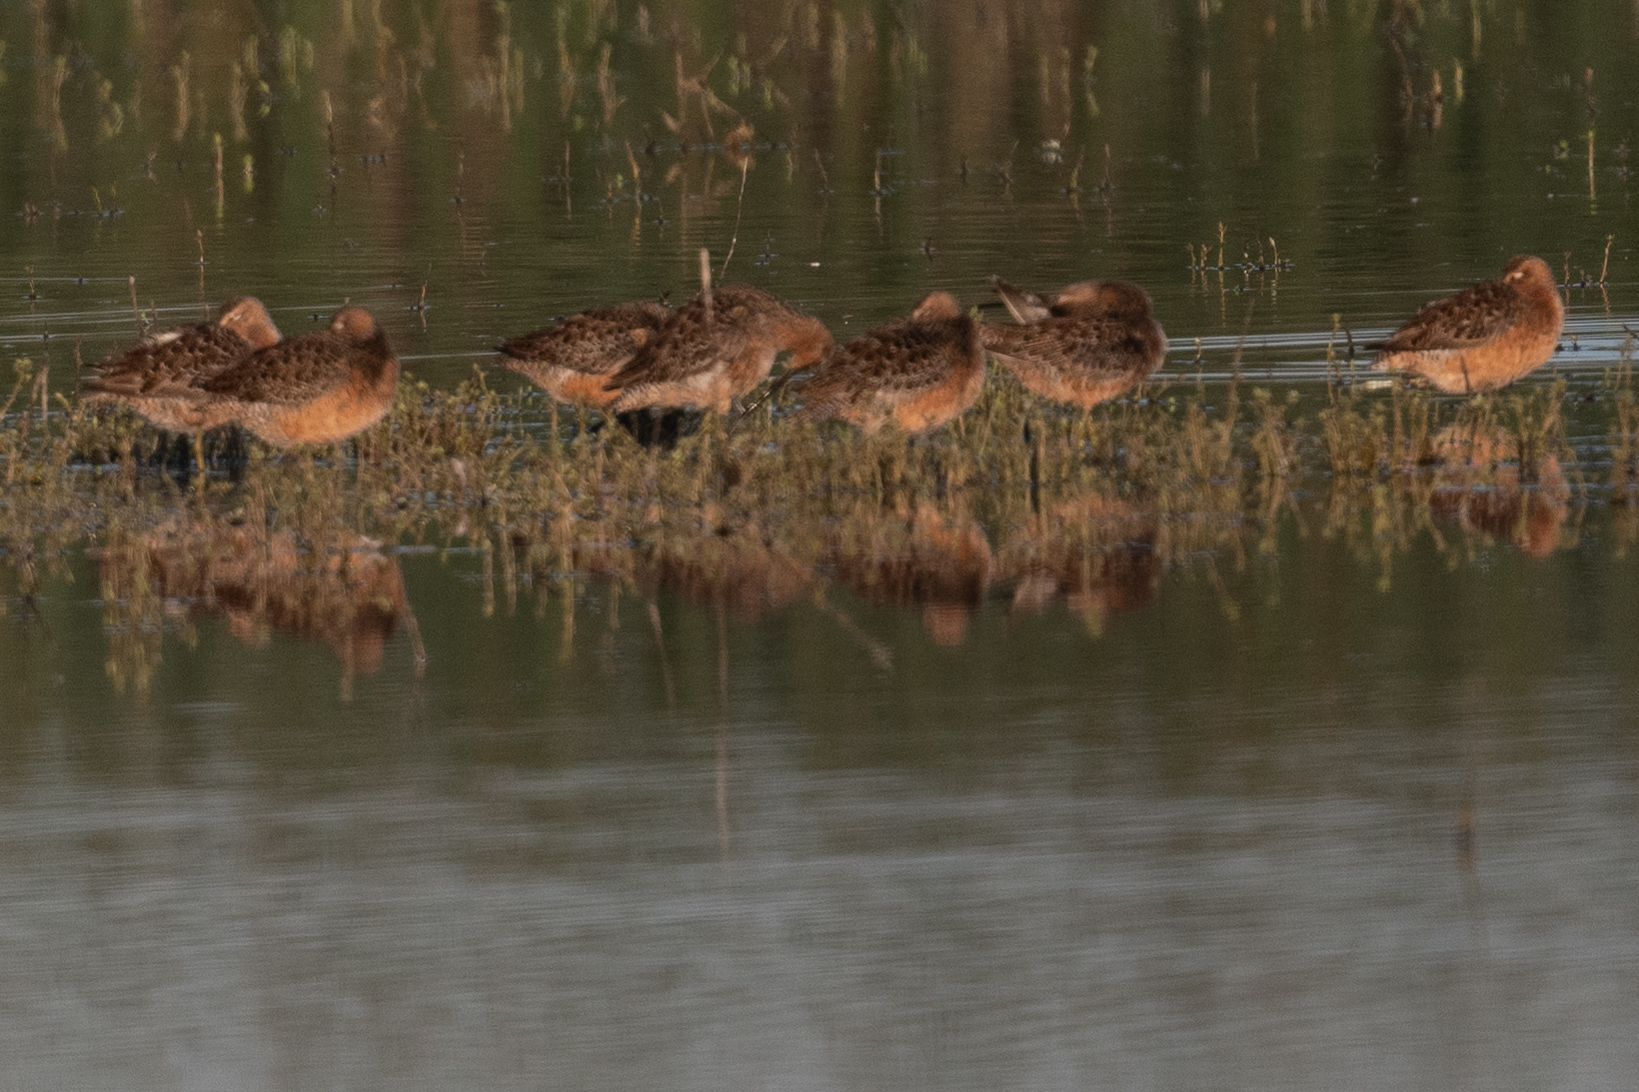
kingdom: Animalia
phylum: Chordata
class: Aves
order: Charadriiformes
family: Scolopacidae
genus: Limnodromus
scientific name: Limnodromus scolopaceus
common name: Long-billed dowitcher
